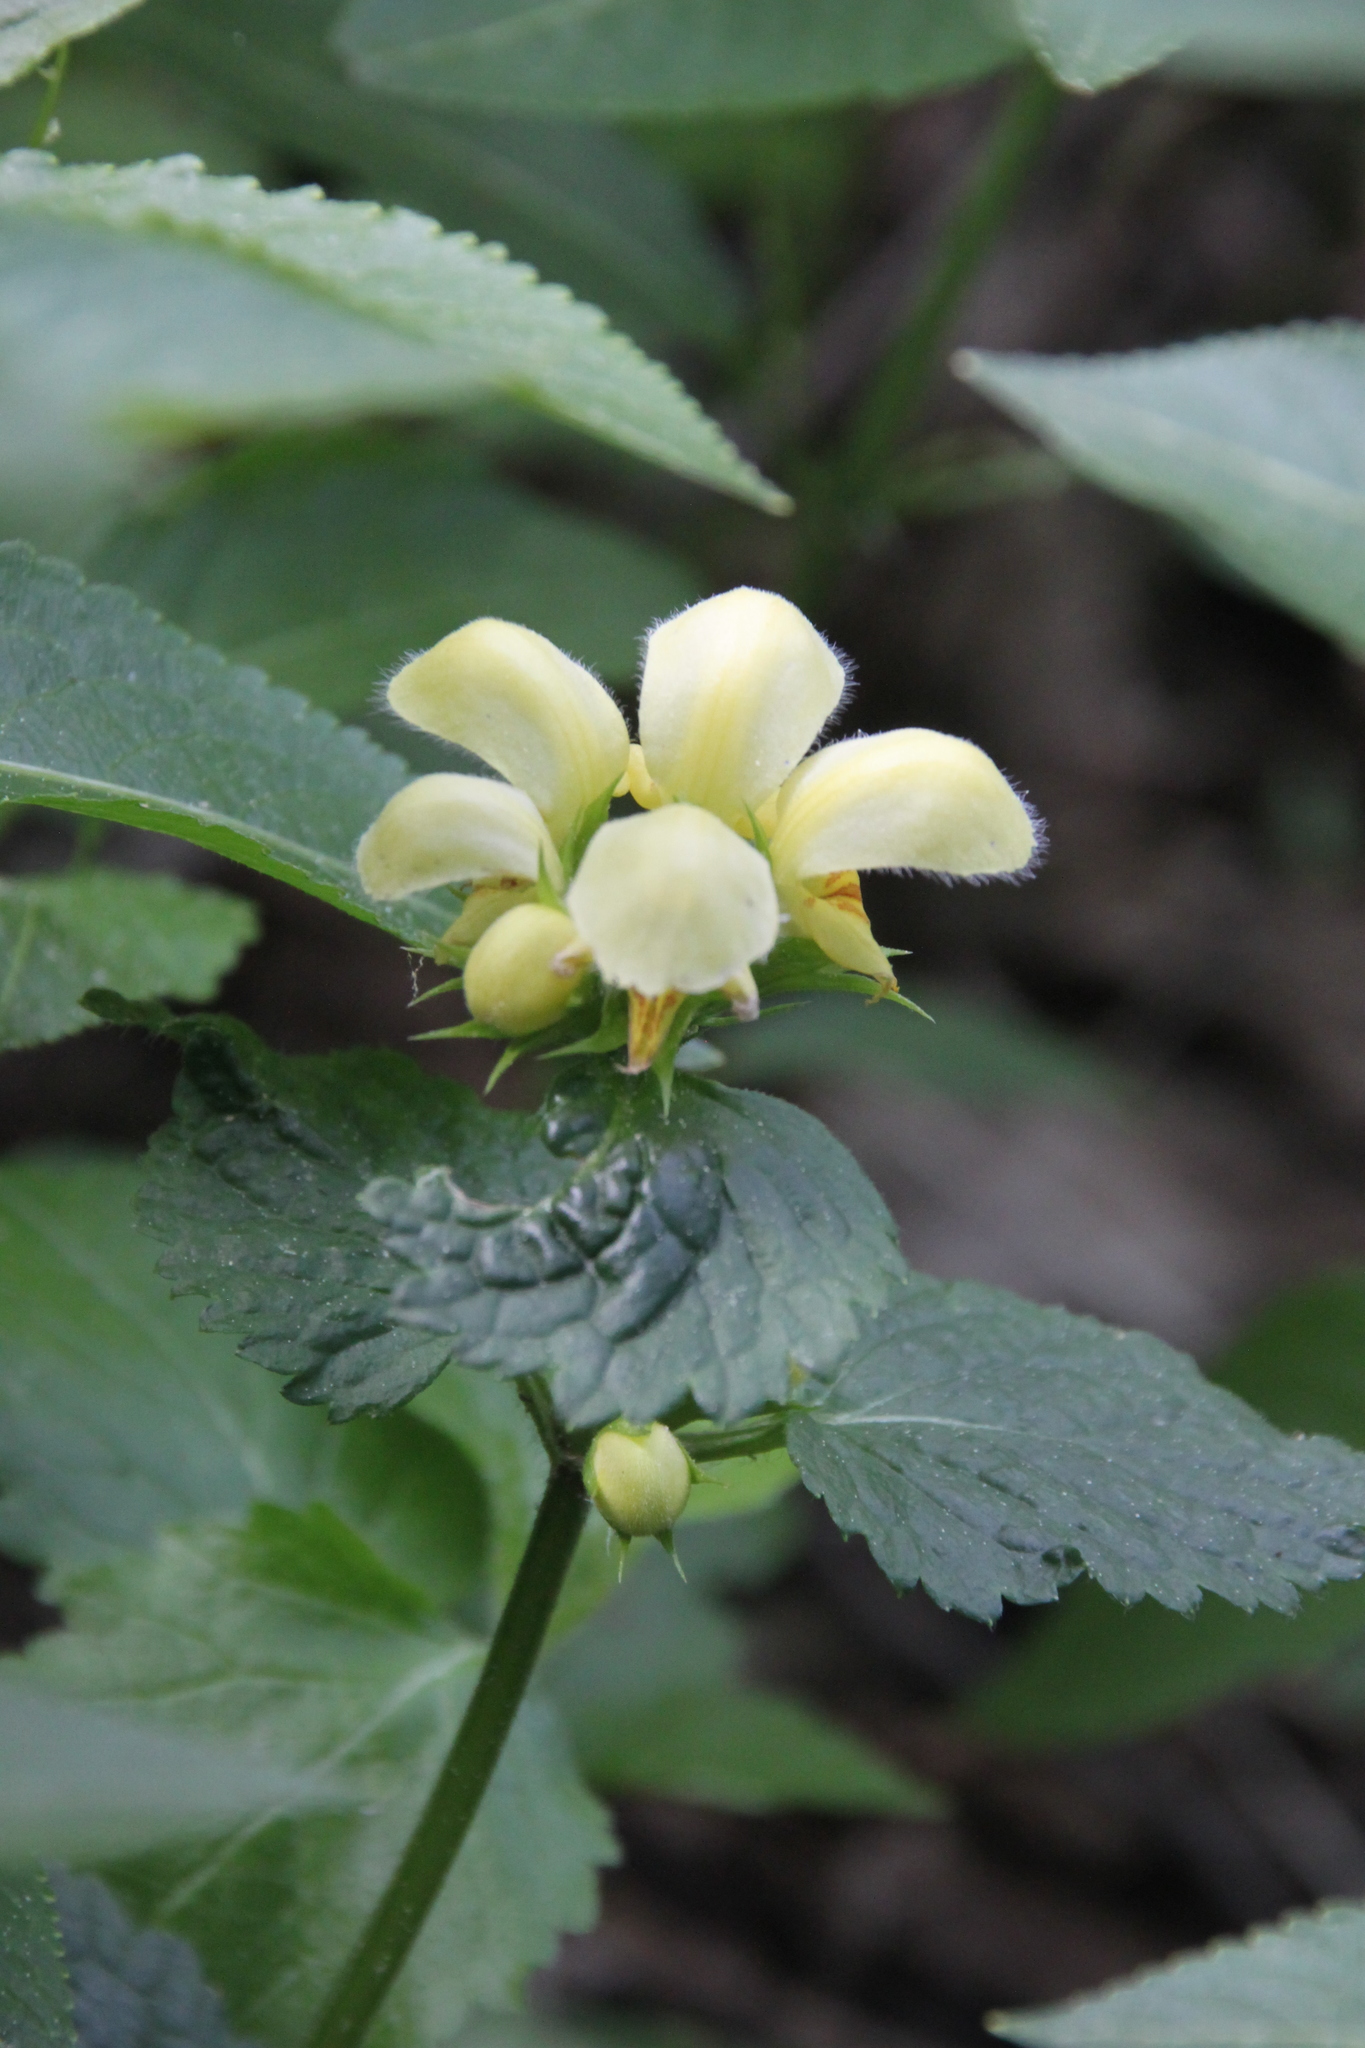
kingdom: Plantae
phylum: Tracheophyta
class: Magnoliopsida
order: Lamiales
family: Lamiaceae
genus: Lamium
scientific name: Lamium galeobdolon
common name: Yellow archangel
